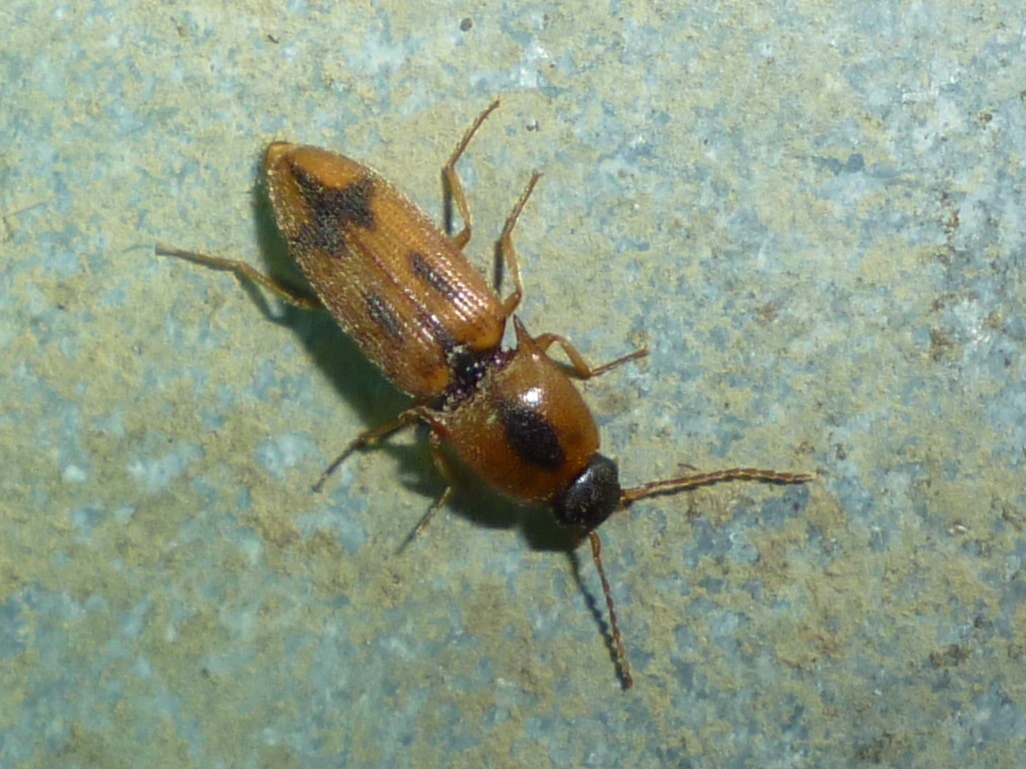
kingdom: Animalia
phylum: Arthropoda
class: Insecta
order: Coleoptera
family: Elateridae
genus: Aeolus
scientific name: Aeolus mellillus
